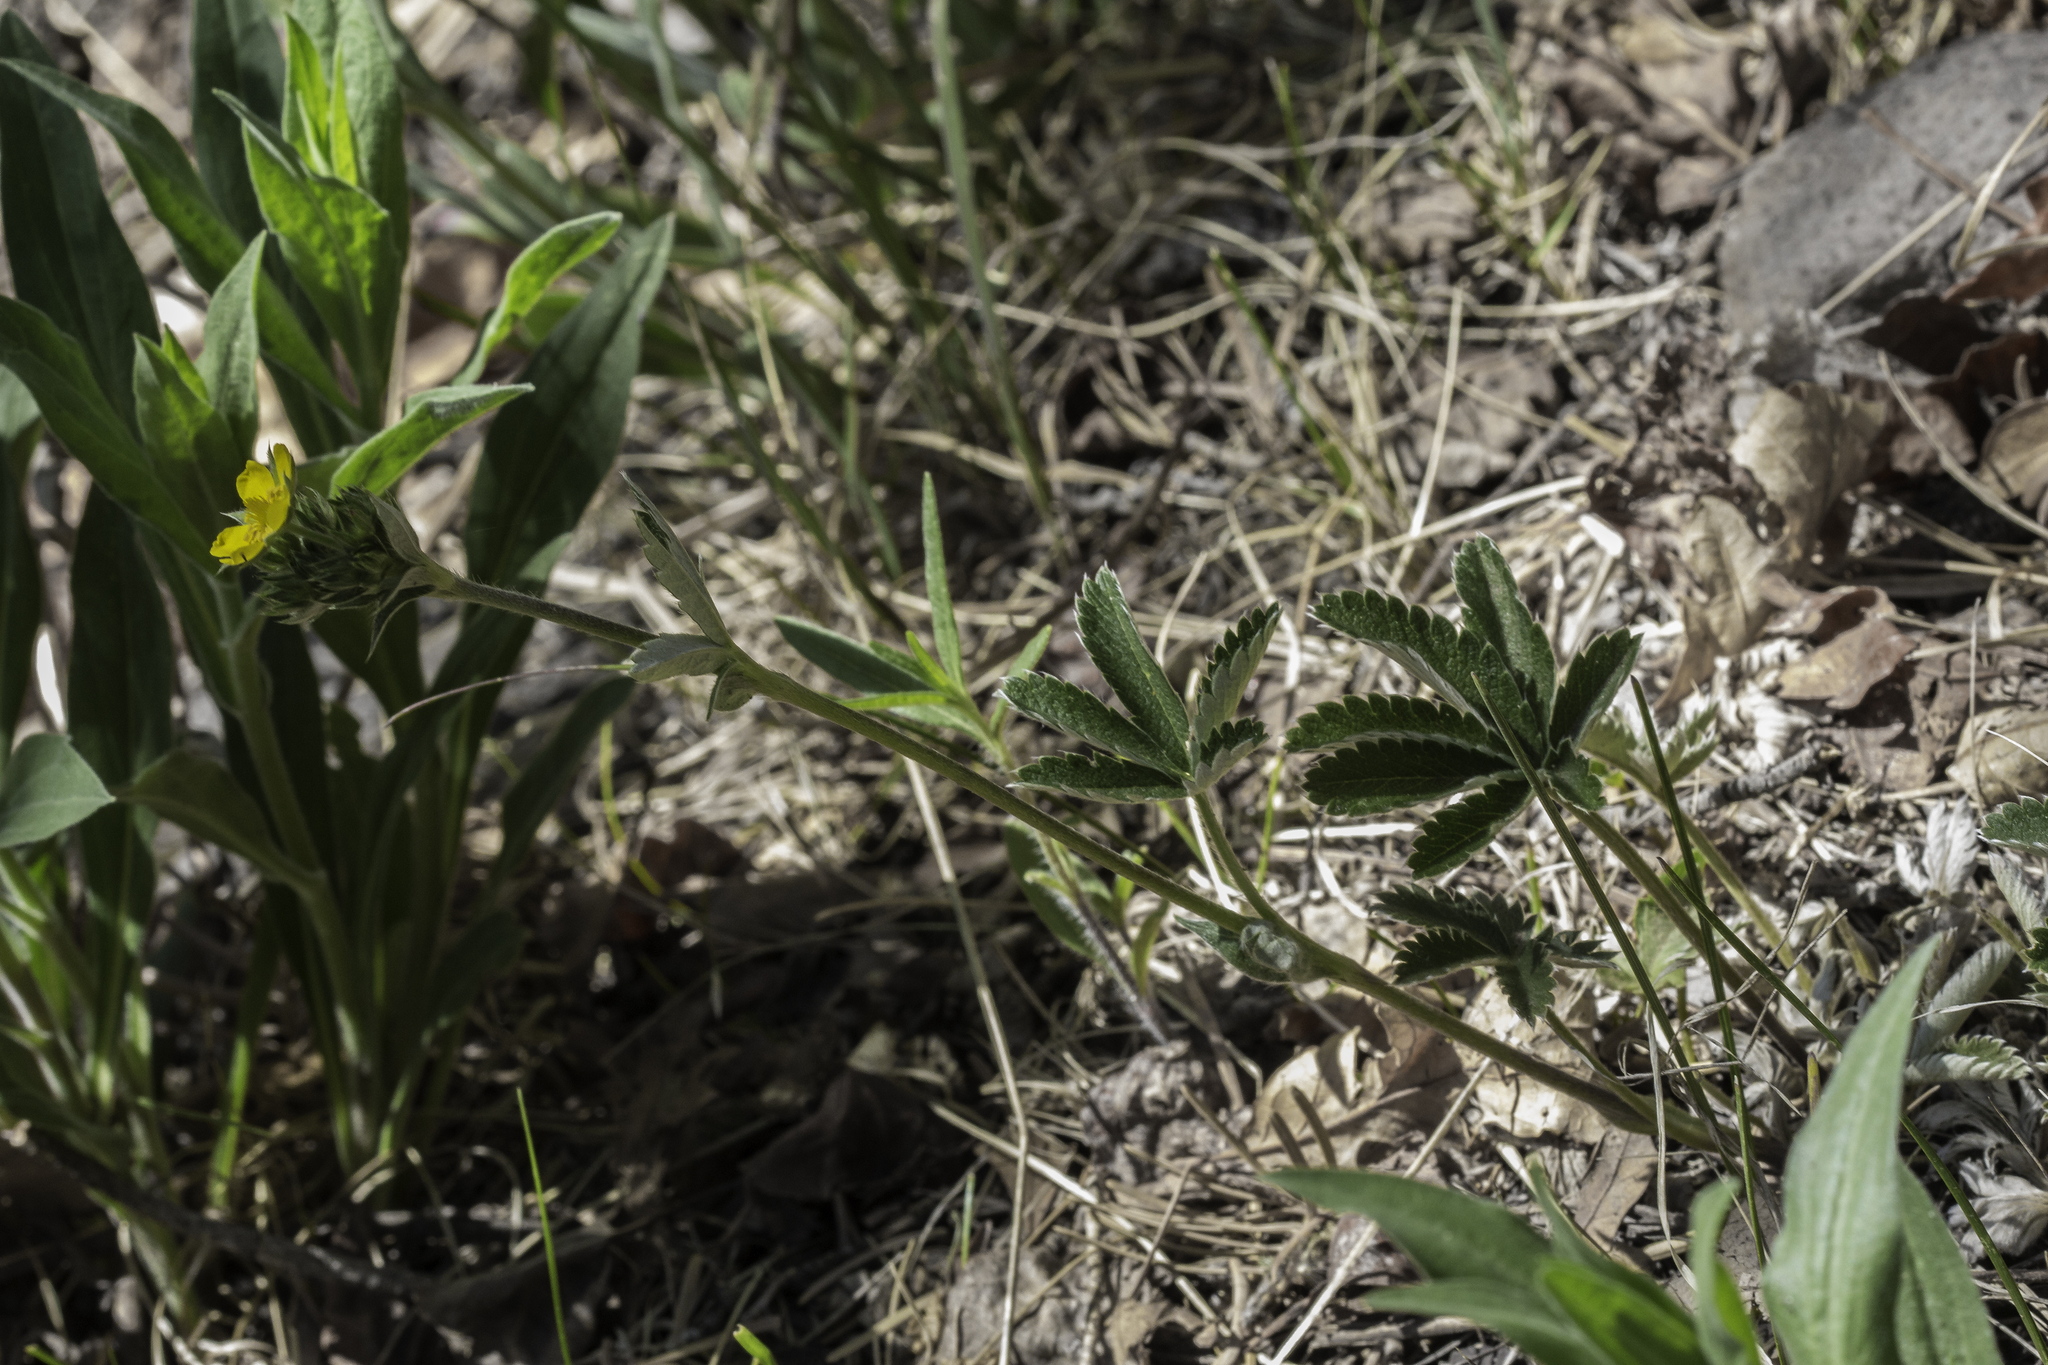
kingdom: Plantae
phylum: Tracheophyta
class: Magnoliopsida
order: Rosales
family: Rosaceae
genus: Potentilla
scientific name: Potentilla pulcherrima
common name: Beautiful cinquefoil
